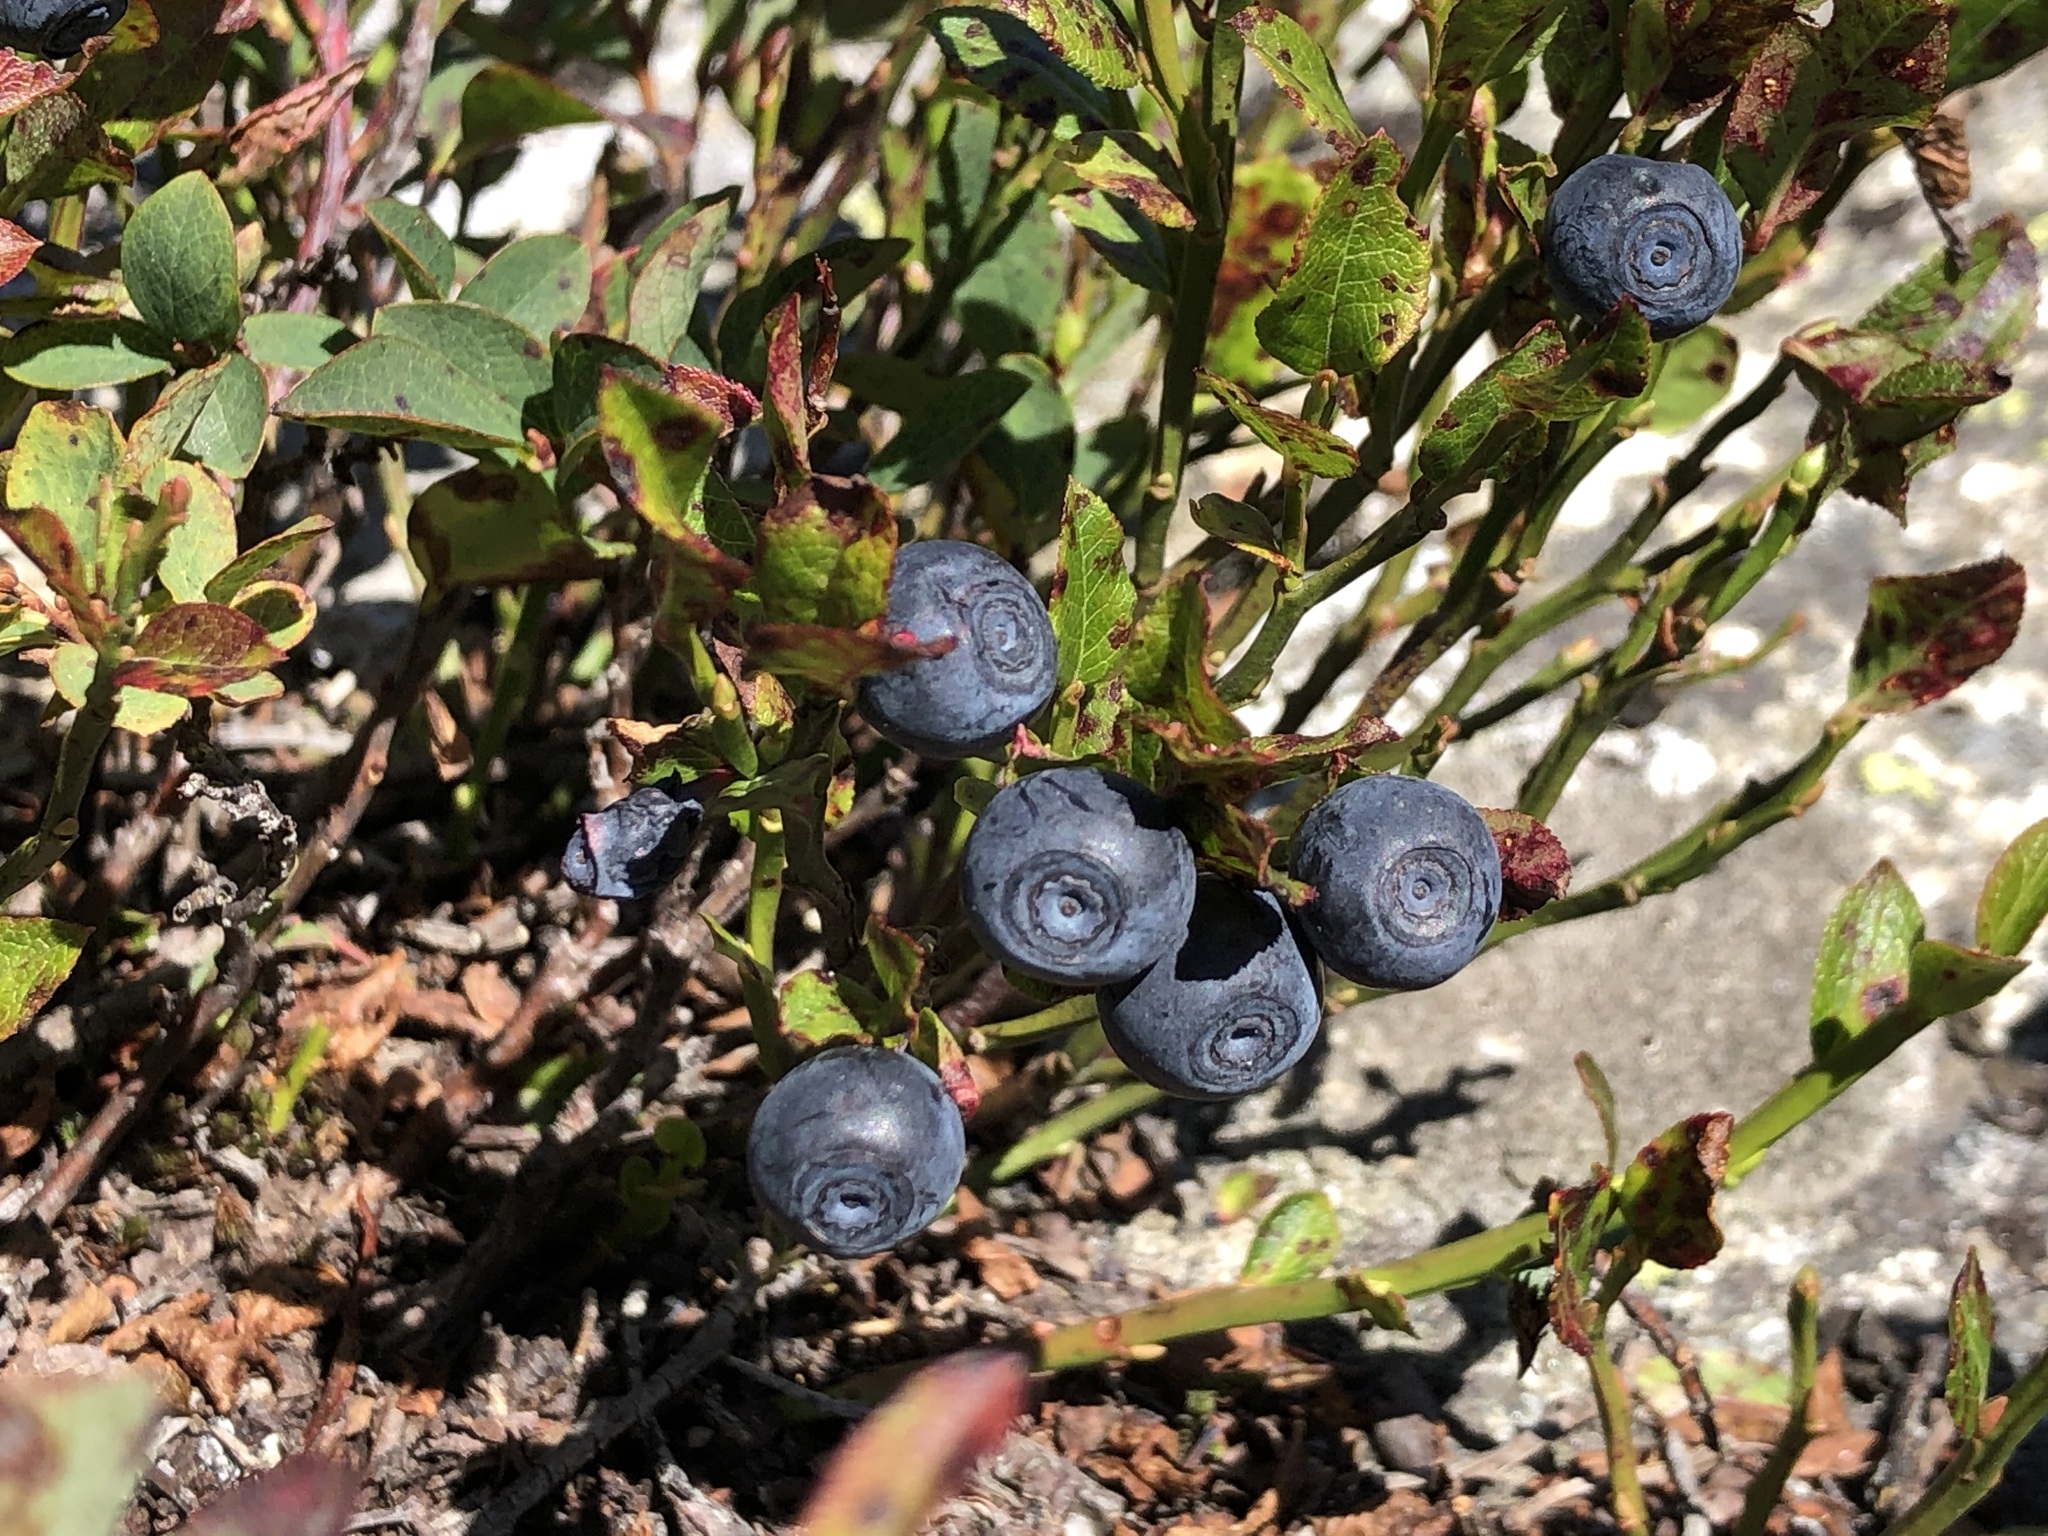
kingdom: Plantae
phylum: Tracheophyta
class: Magnoliopsida
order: Ericales
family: Ericaceae
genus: Vaccinium
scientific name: Vaccinium myrtillus
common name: Bilberry
